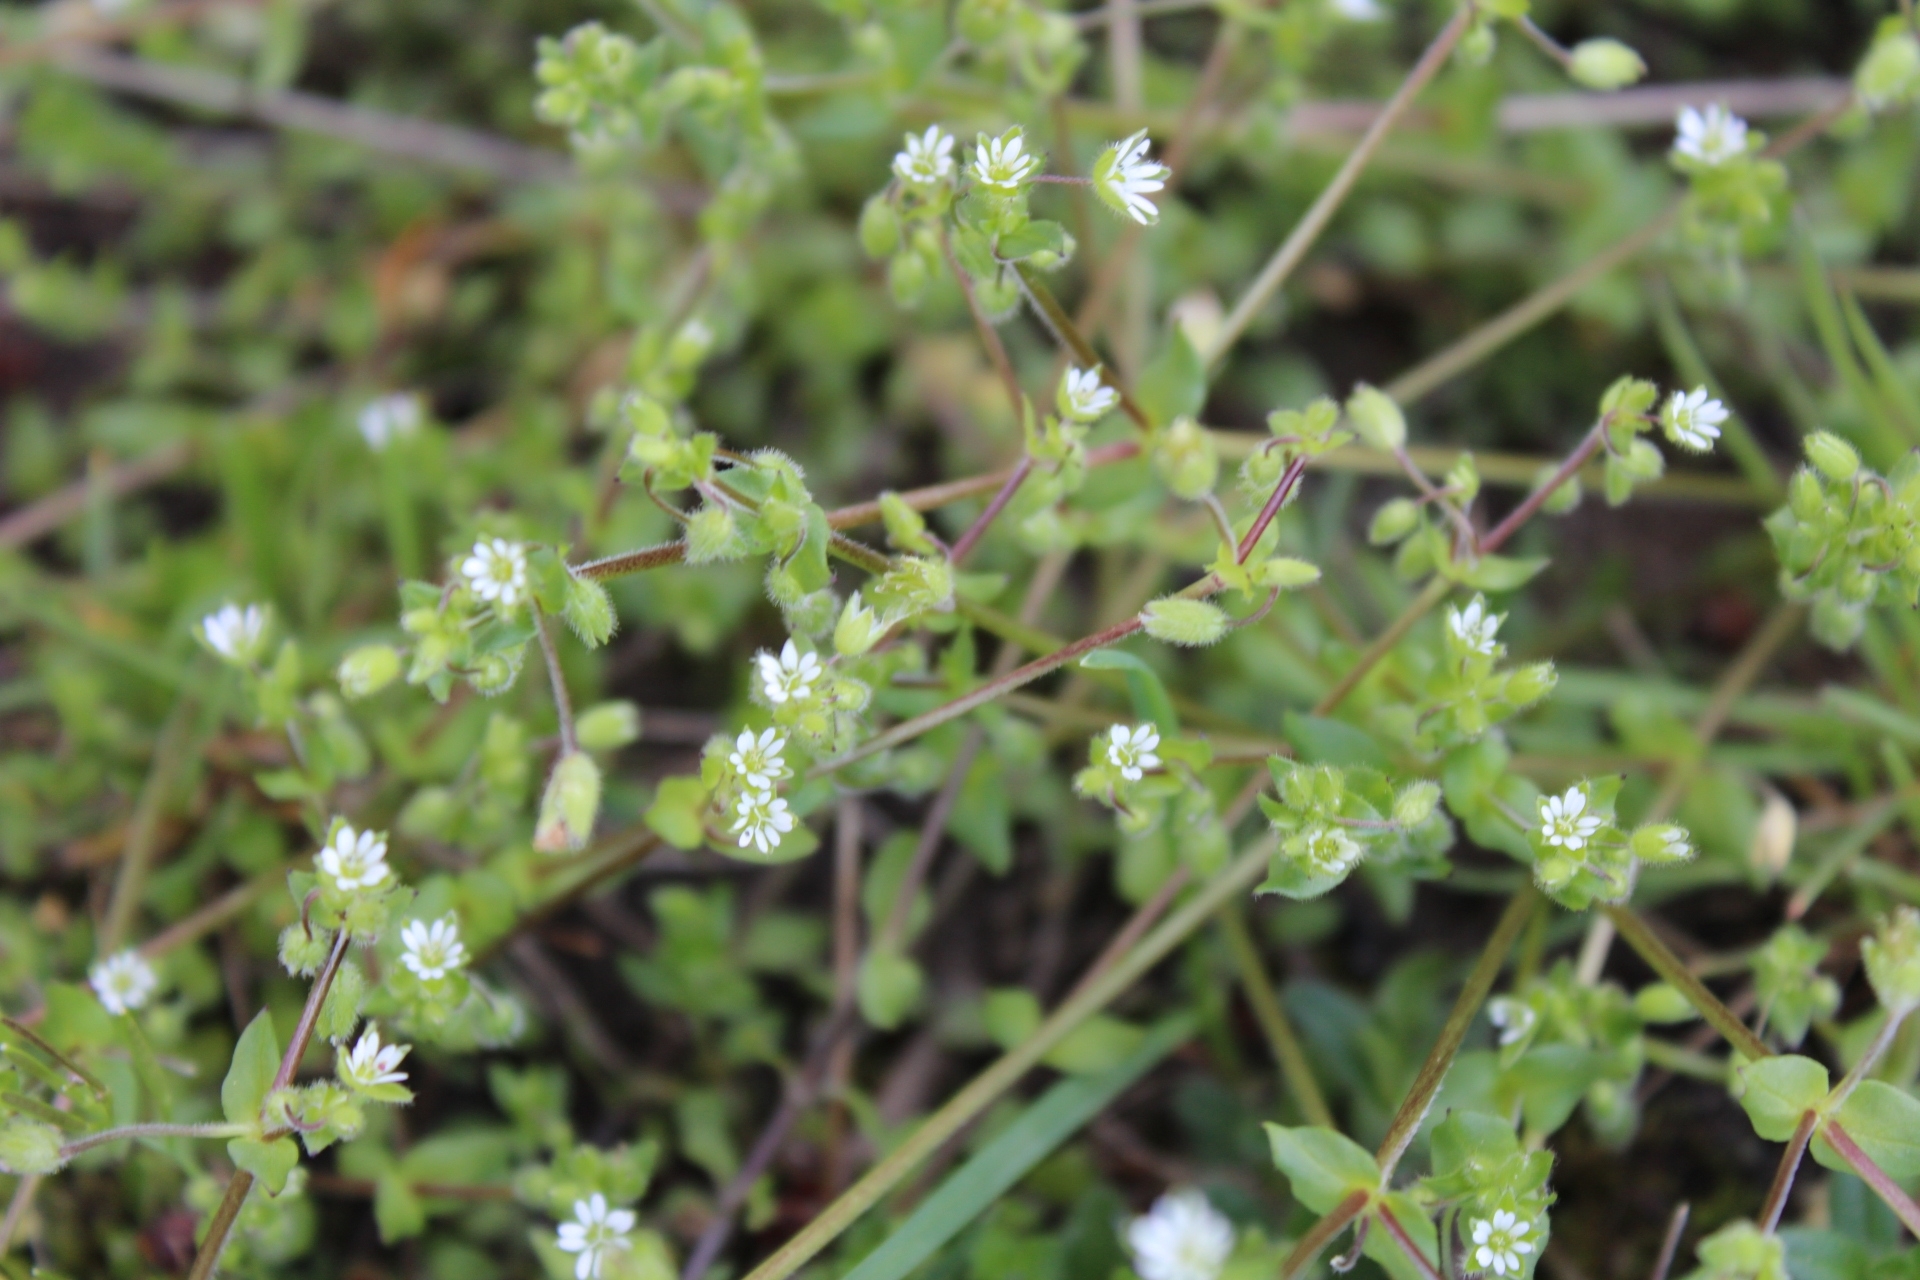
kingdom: Plantae
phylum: Tracheophyta
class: Magnoliopsida
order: Caryophyllales
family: Caryophyllaceae
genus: Stellaria
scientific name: Stellaria media
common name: Common chickweed
